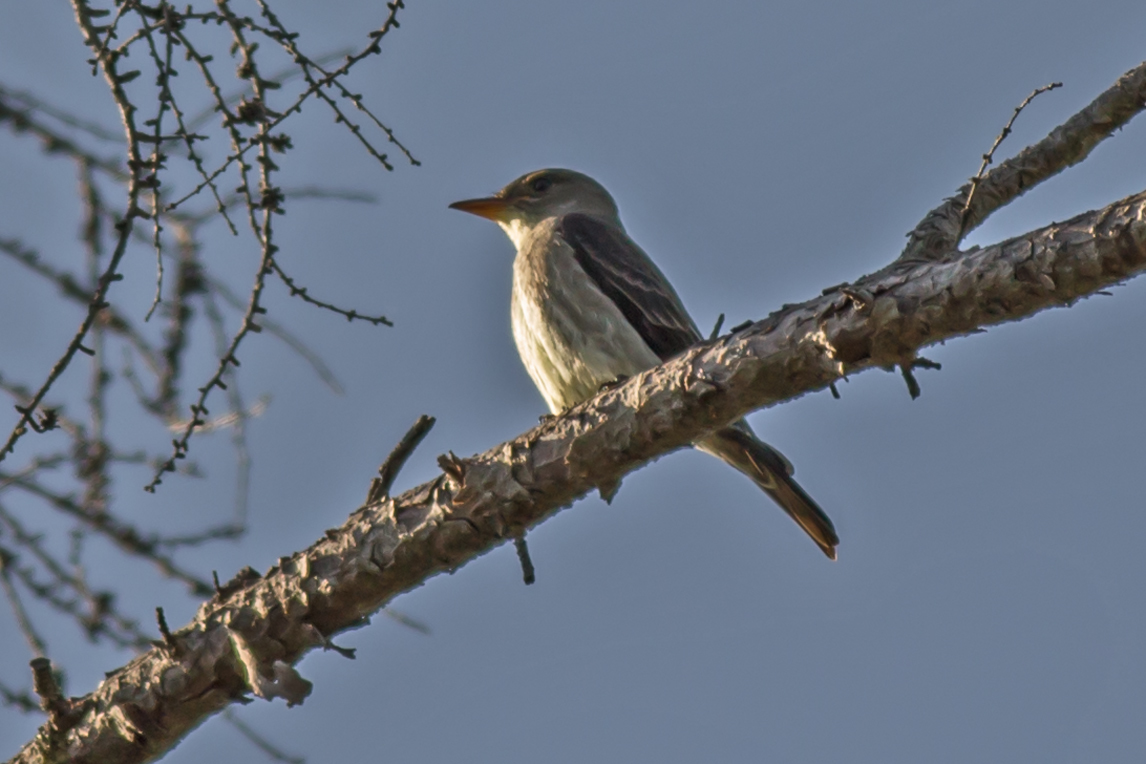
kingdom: Animalia
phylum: Chordata
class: Aves
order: Passeriformes
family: Tyrannidae
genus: Contopus
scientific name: Contopus cooperi
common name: Olive-sided flycatcher
